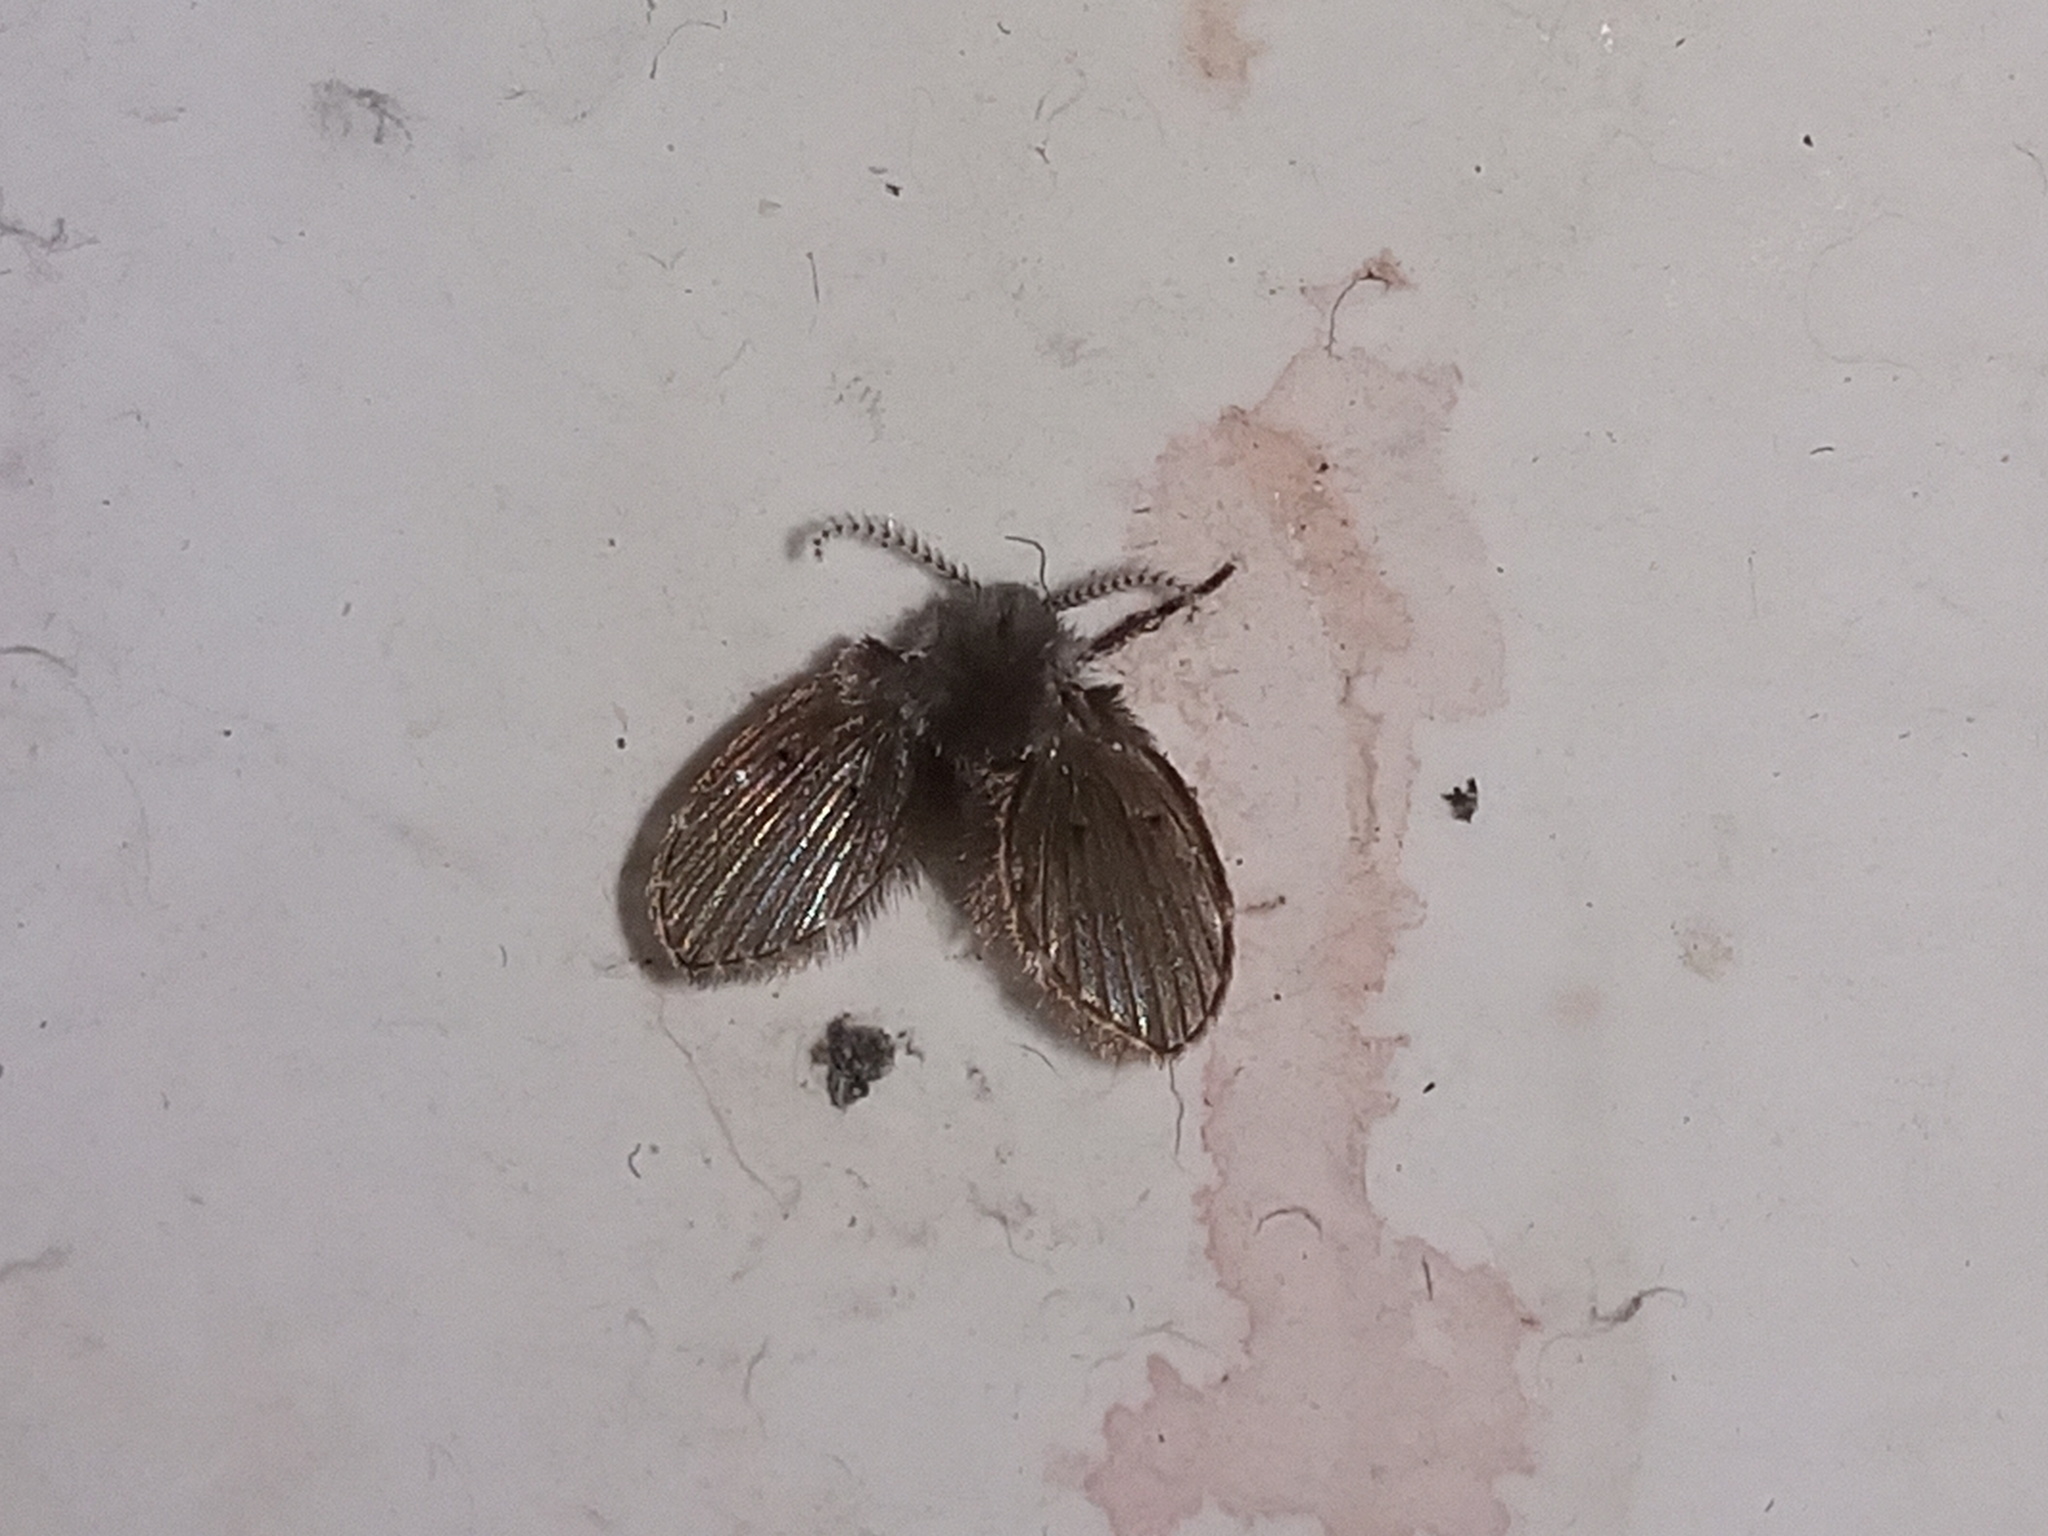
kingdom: Animalia
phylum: Arthropoda
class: Insecta
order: Diptera
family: Psychodidae
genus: Clogmia
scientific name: Clogmia albipunctatus
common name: White-spotted moth fly
